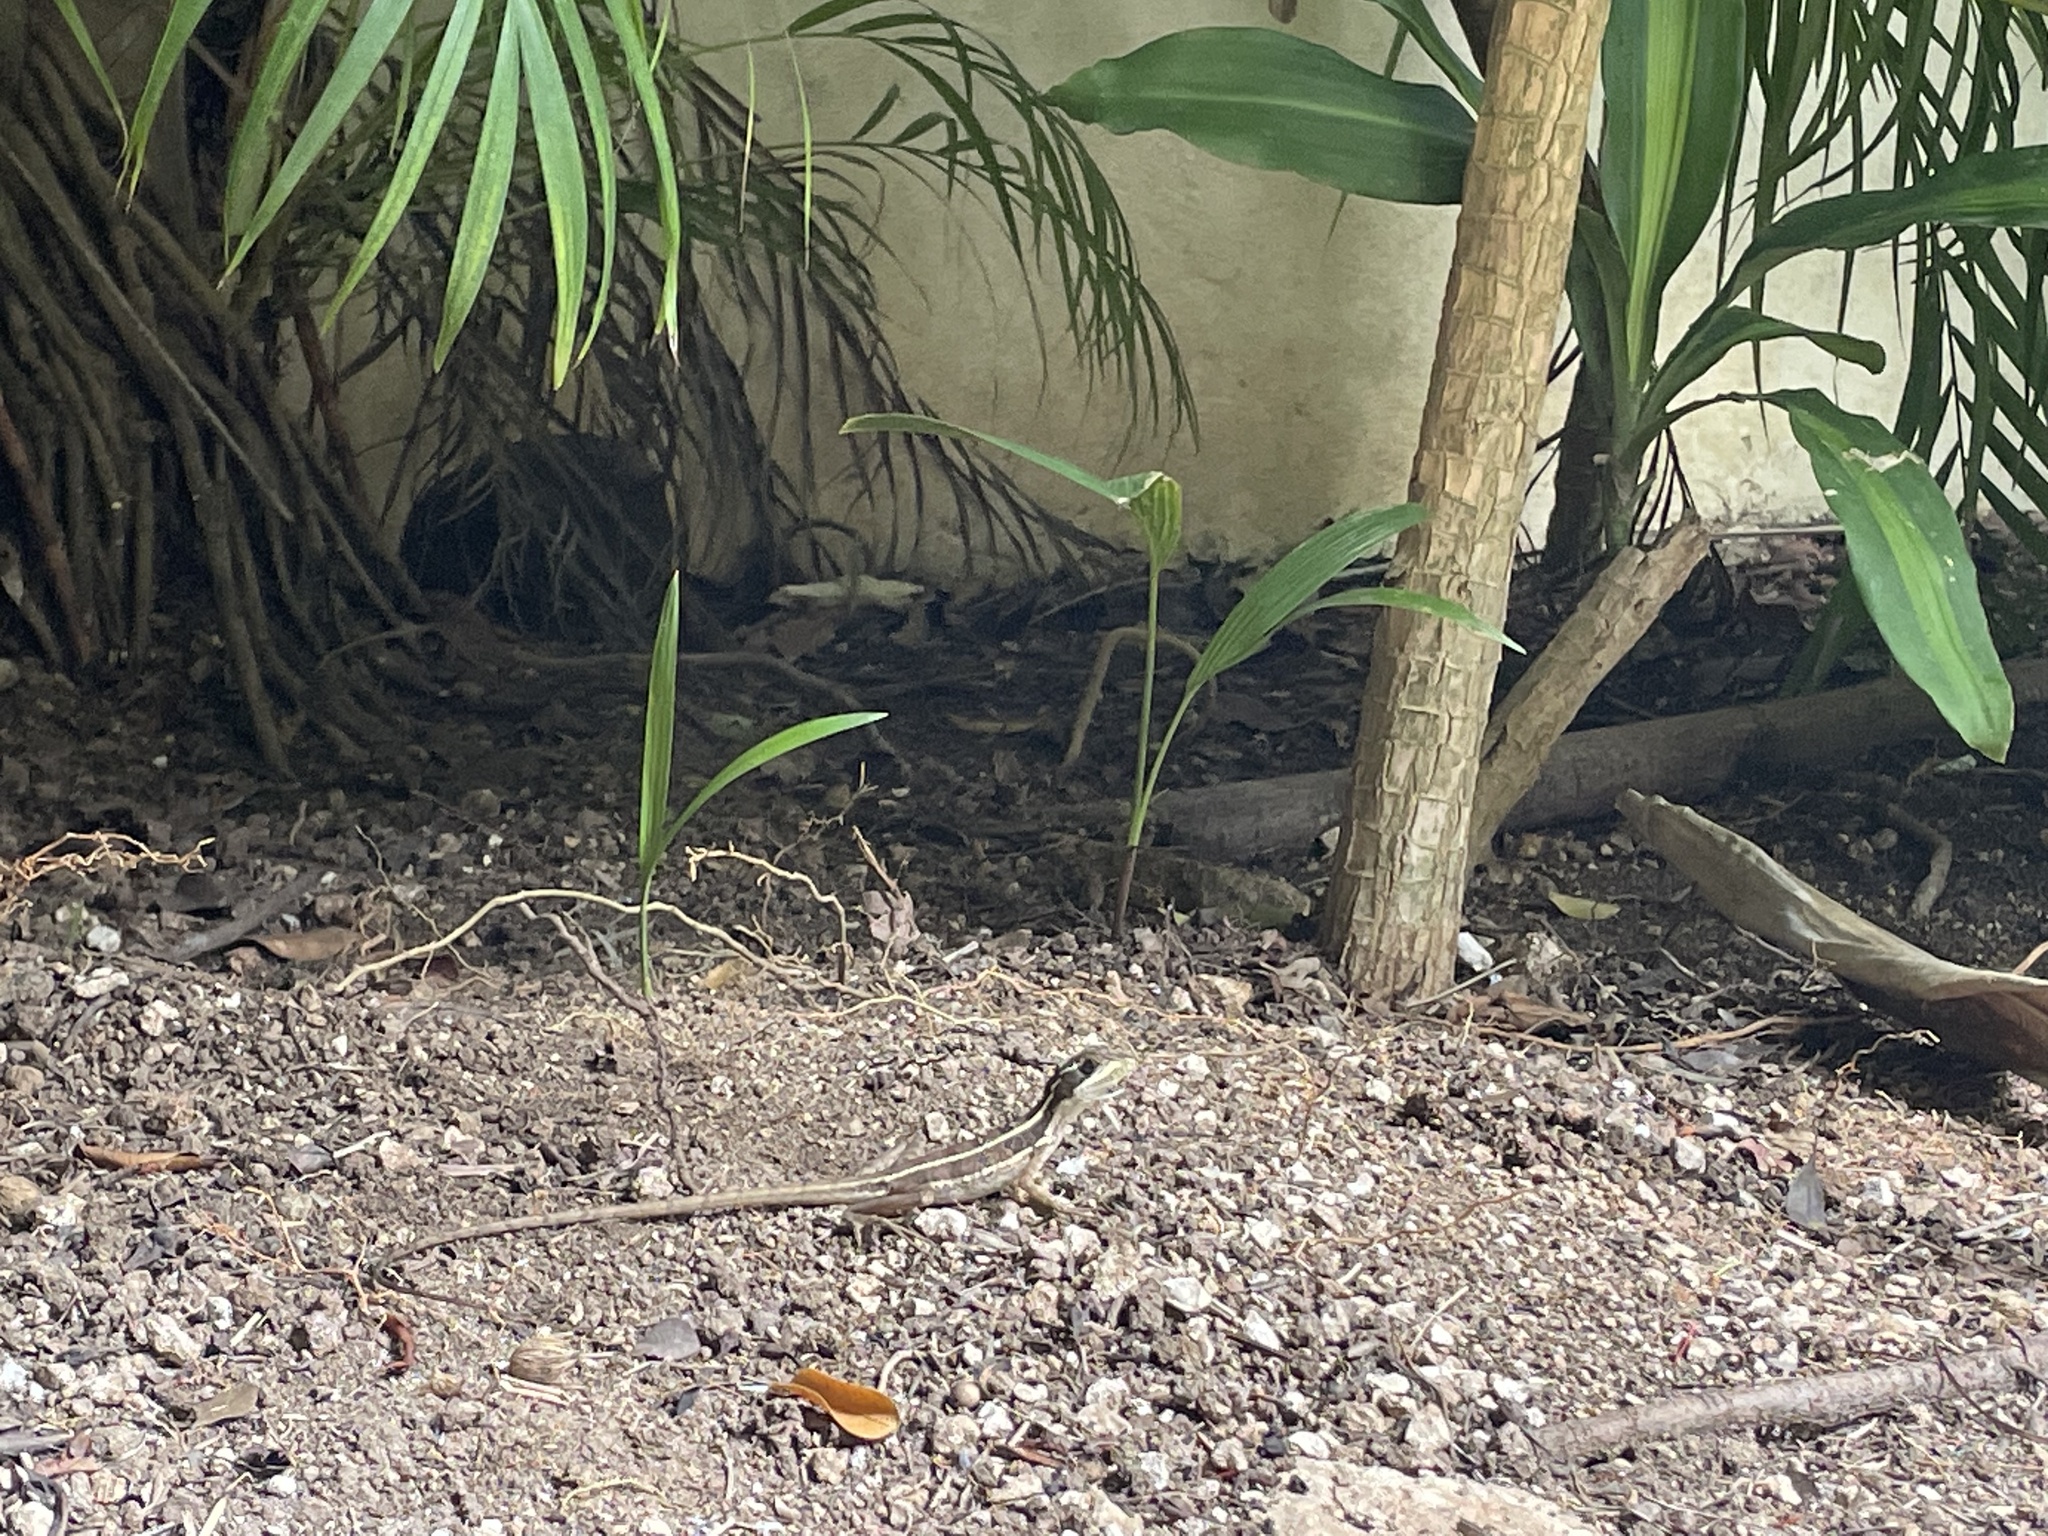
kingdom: Animalia
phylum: Chordata
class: Squamata
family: Corytophanidae
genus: Basiliscus
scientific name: Basiliscus vittatus
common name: Brown basilisk
